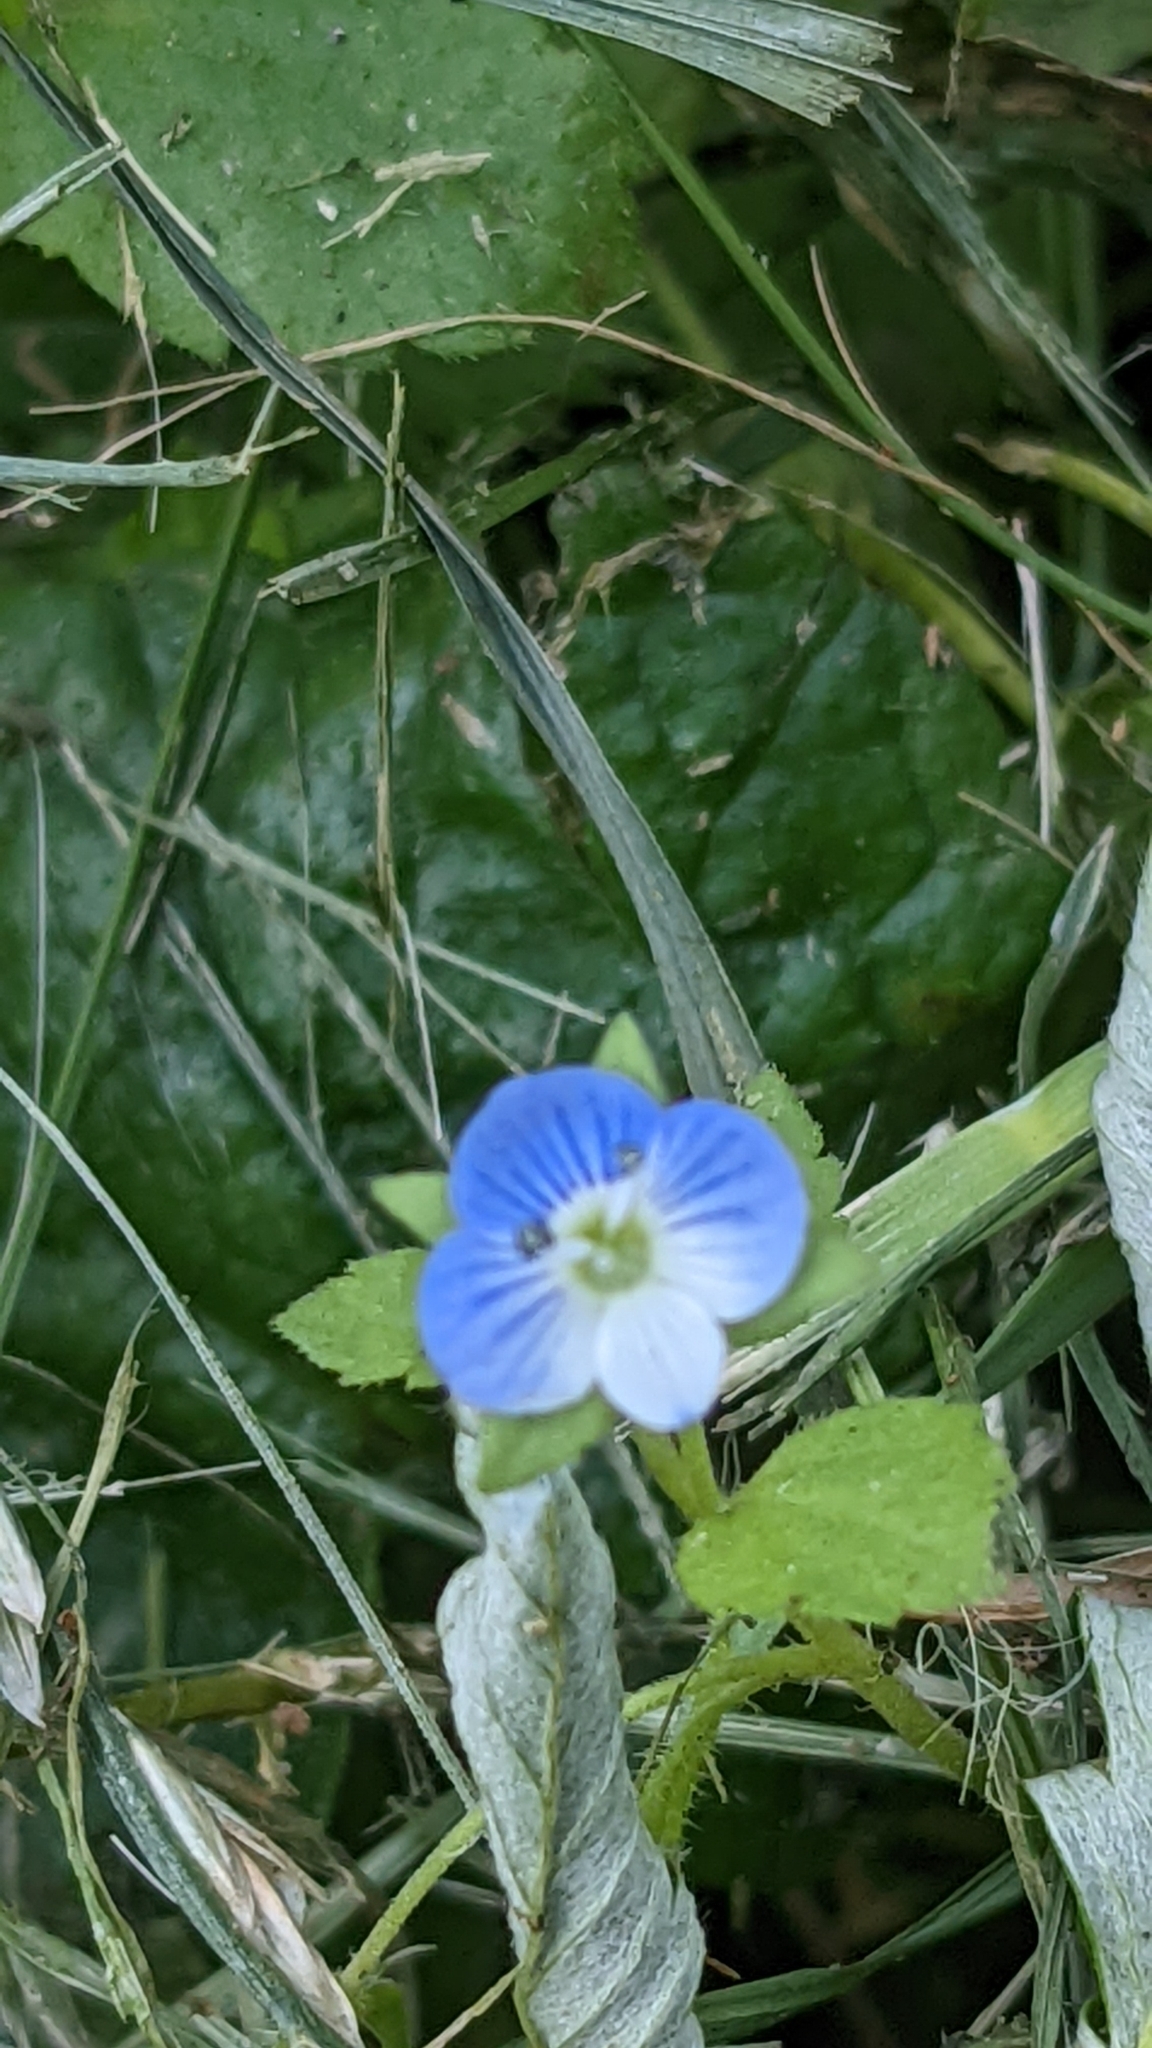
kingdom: Plantae
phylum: Tracheophyta
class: Magnoliopsida
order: Lamiales
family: Plantaginaceae
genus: Veronica
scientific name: Veronica persica
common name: Common field-speedwell
